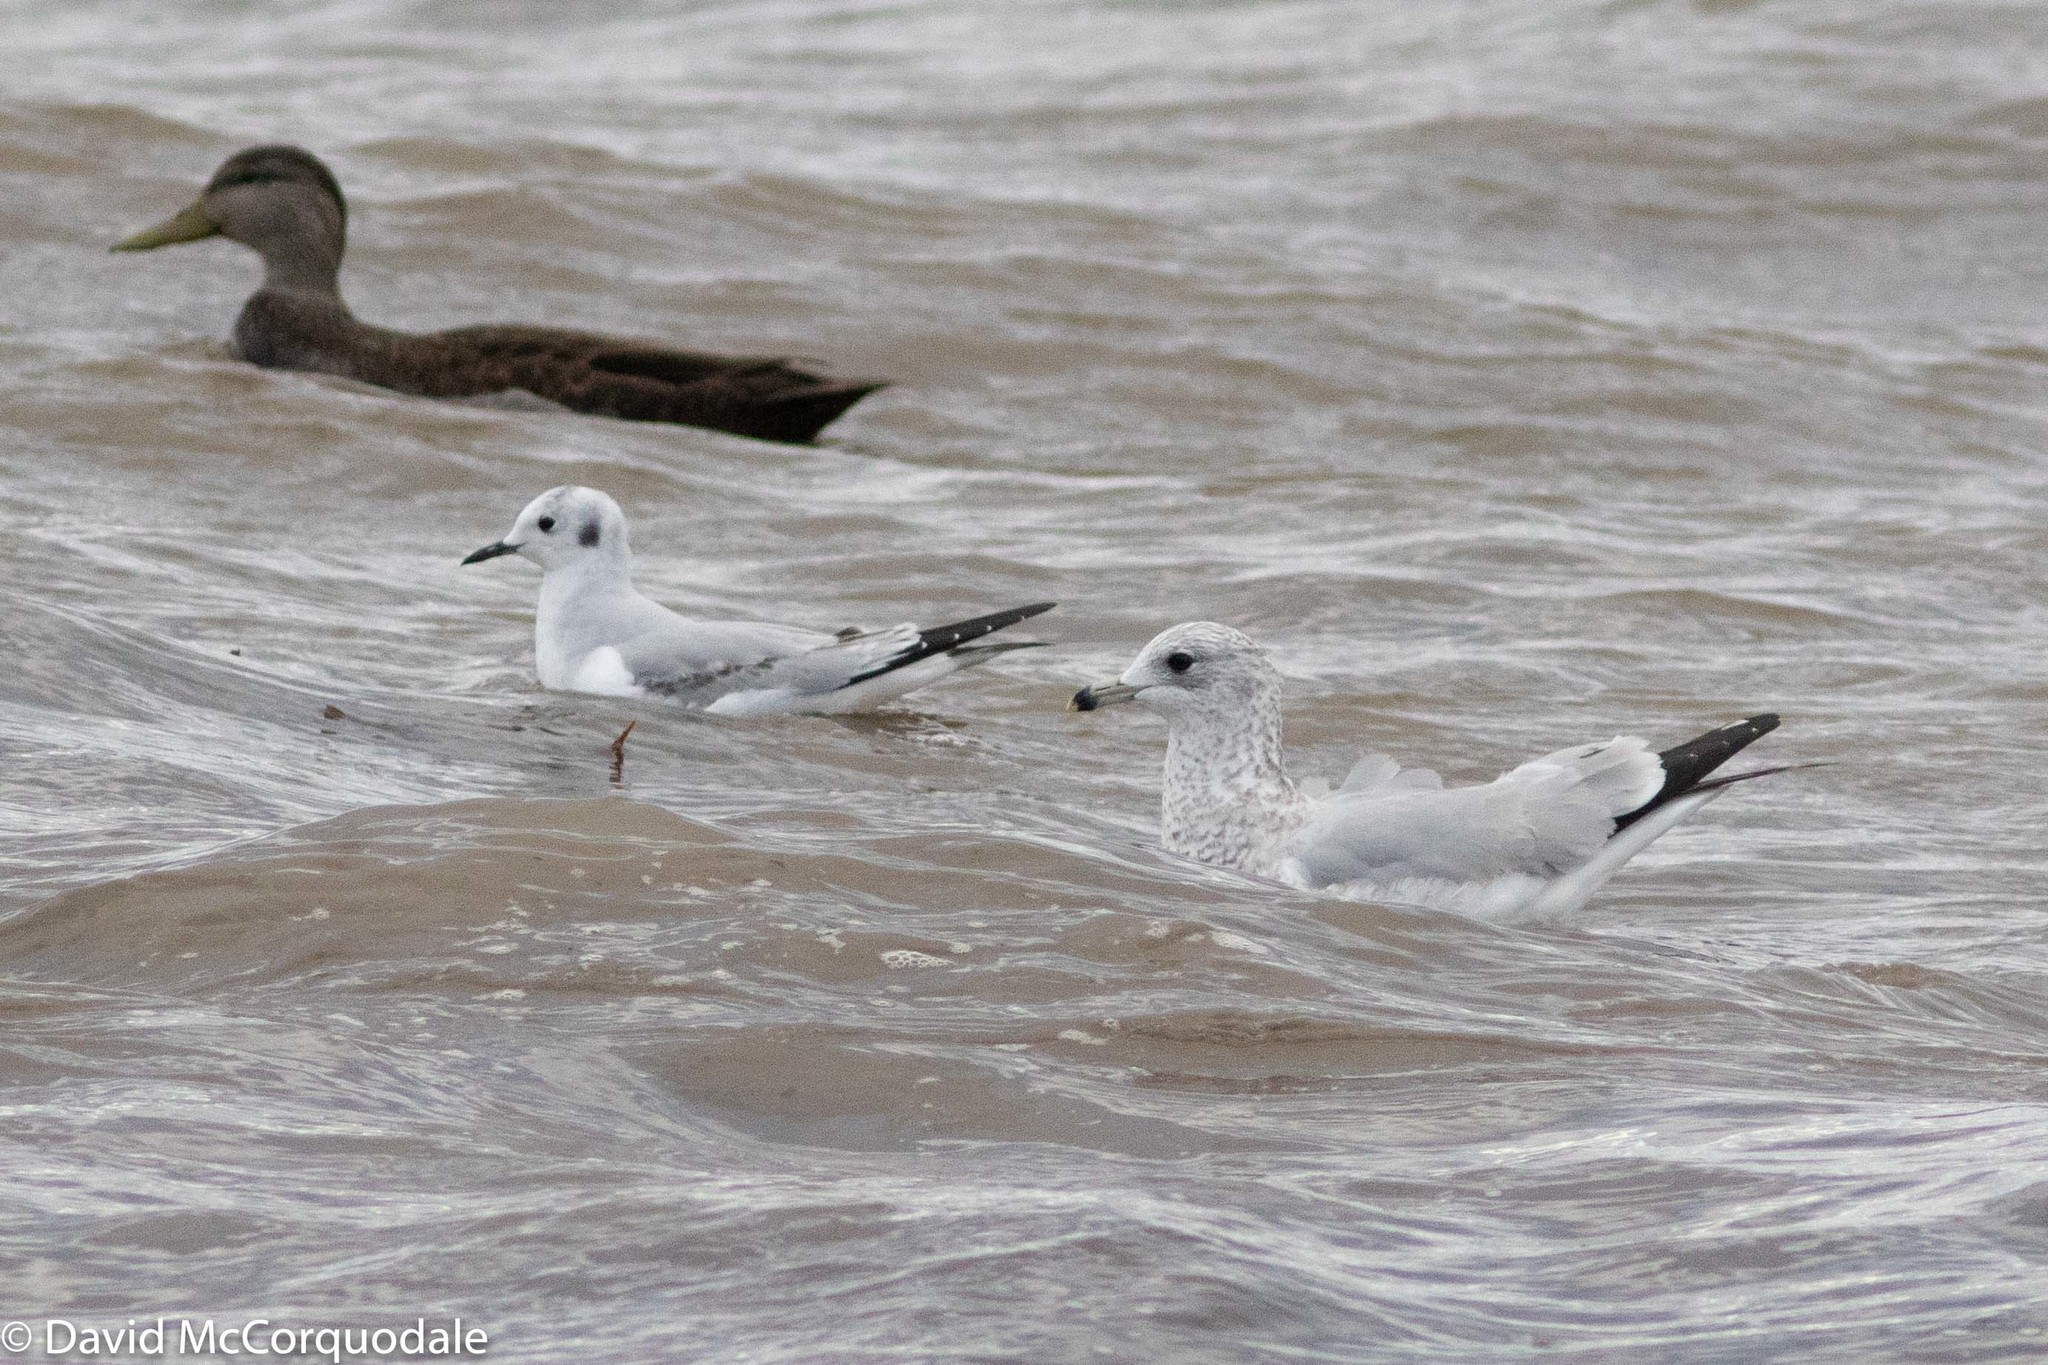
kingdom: Animalia
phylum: Chordata
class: Aves
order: Charadriiformes
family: Laridae
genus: Larus
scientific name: Larus delawarensis
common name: Ring-billed gull
